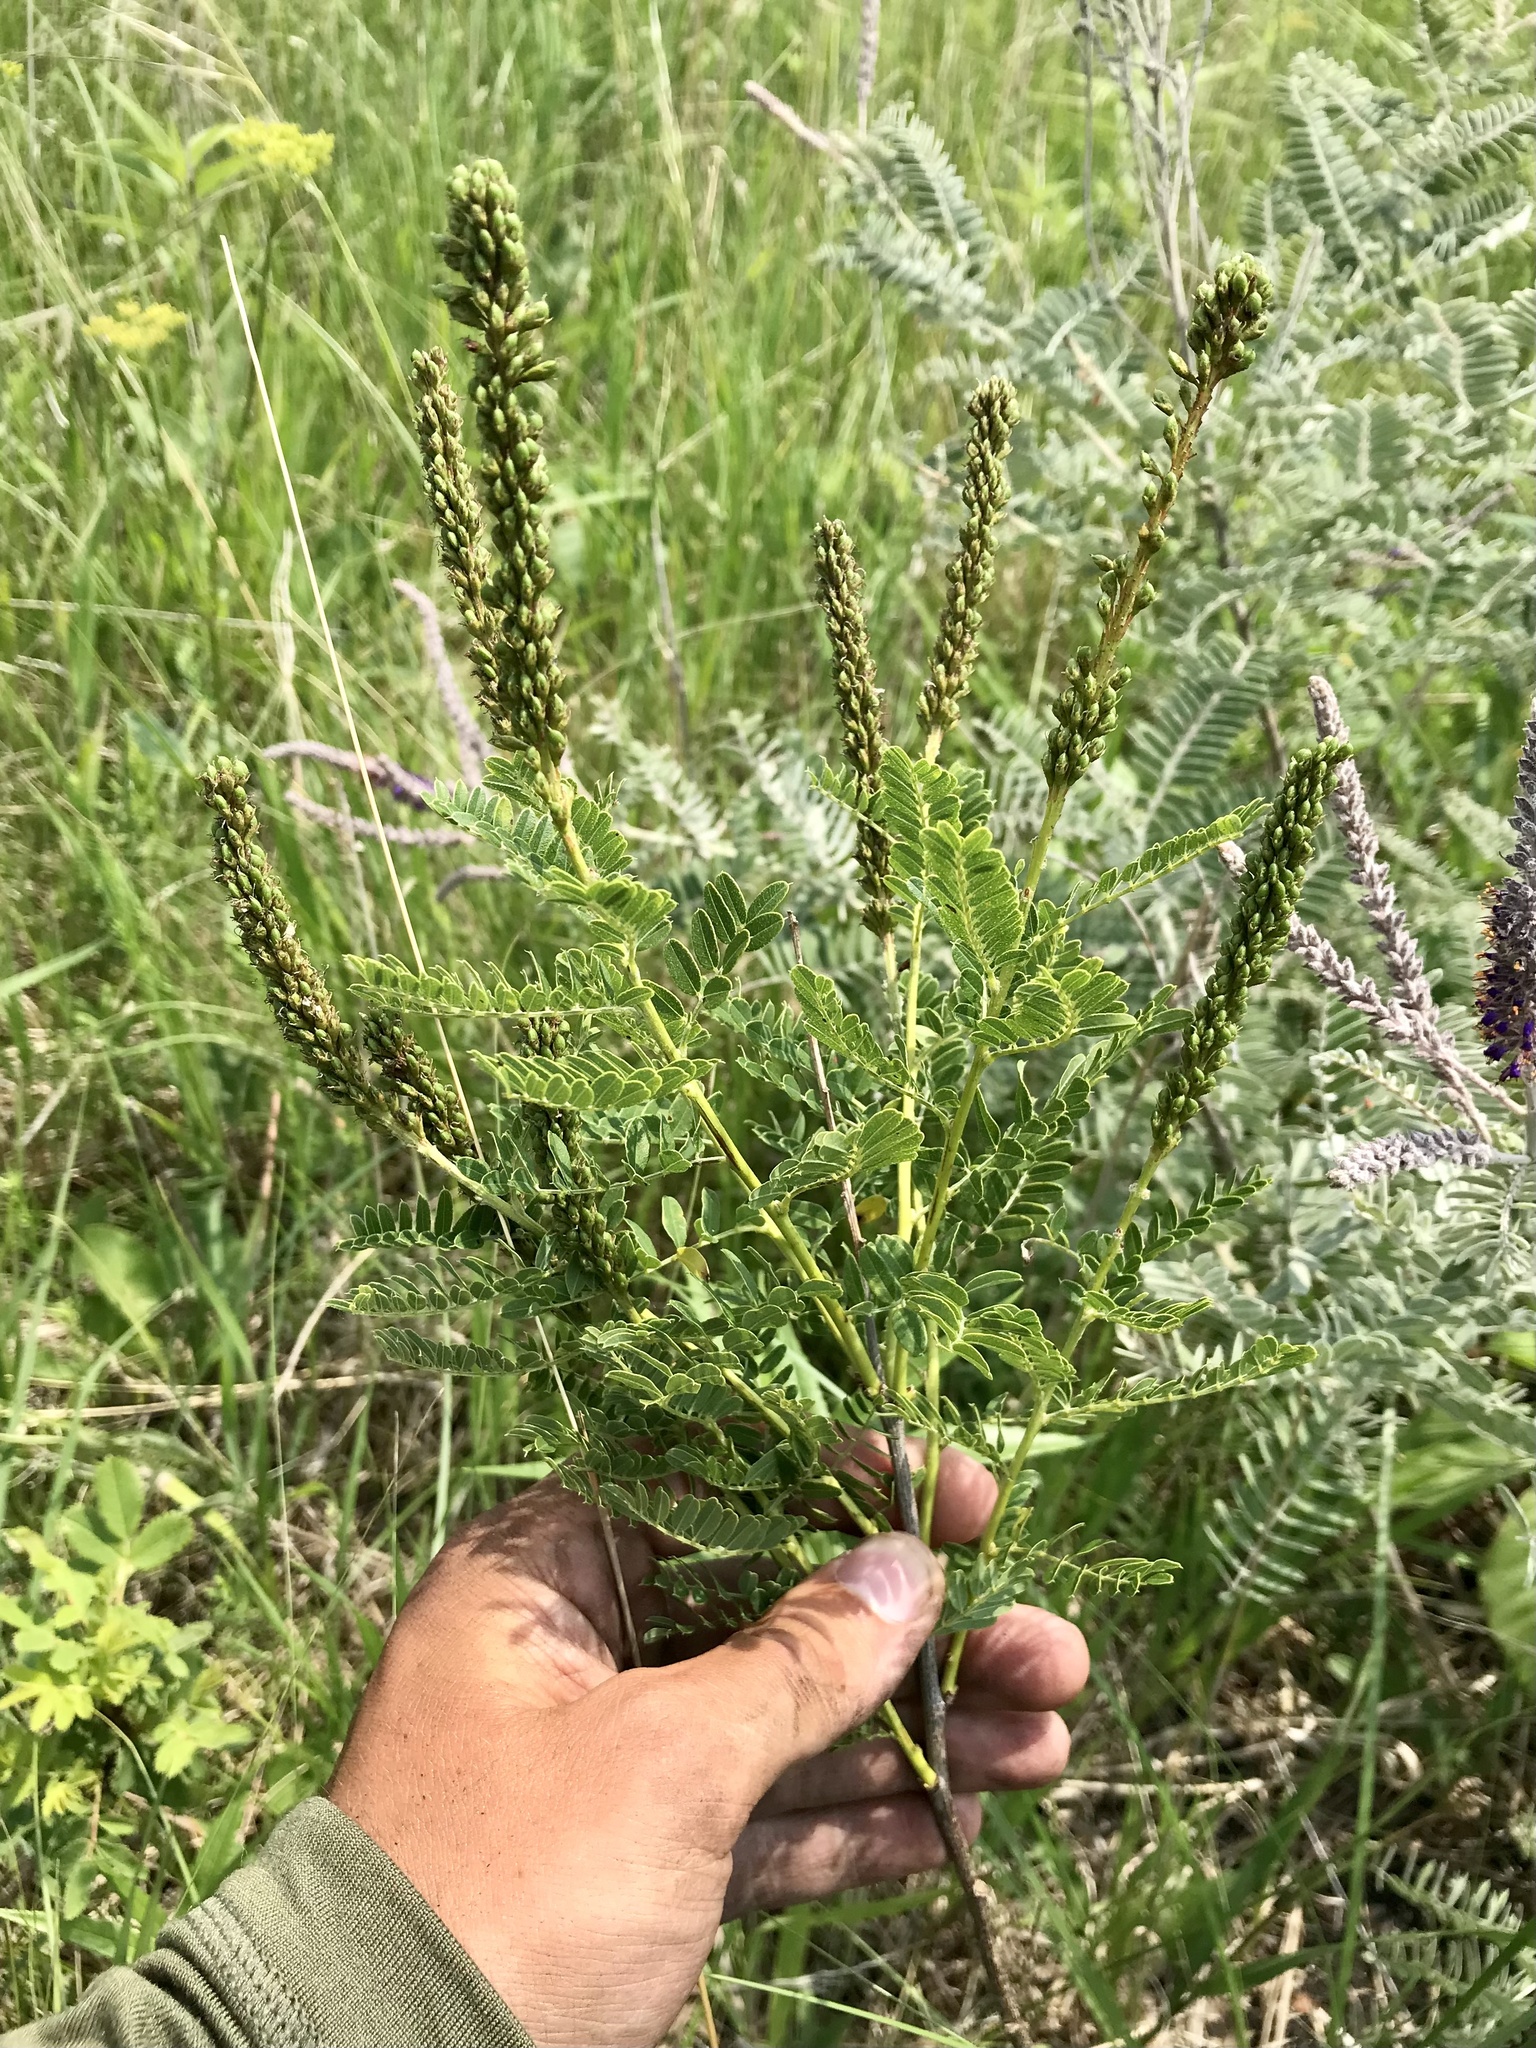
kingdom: Plantae
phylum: Tracheophyta
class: Magnoliopsida
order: Fabales
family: Fabaceae
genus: Amorpha
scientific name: Amorpha nana
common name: Fragrant false indigo
